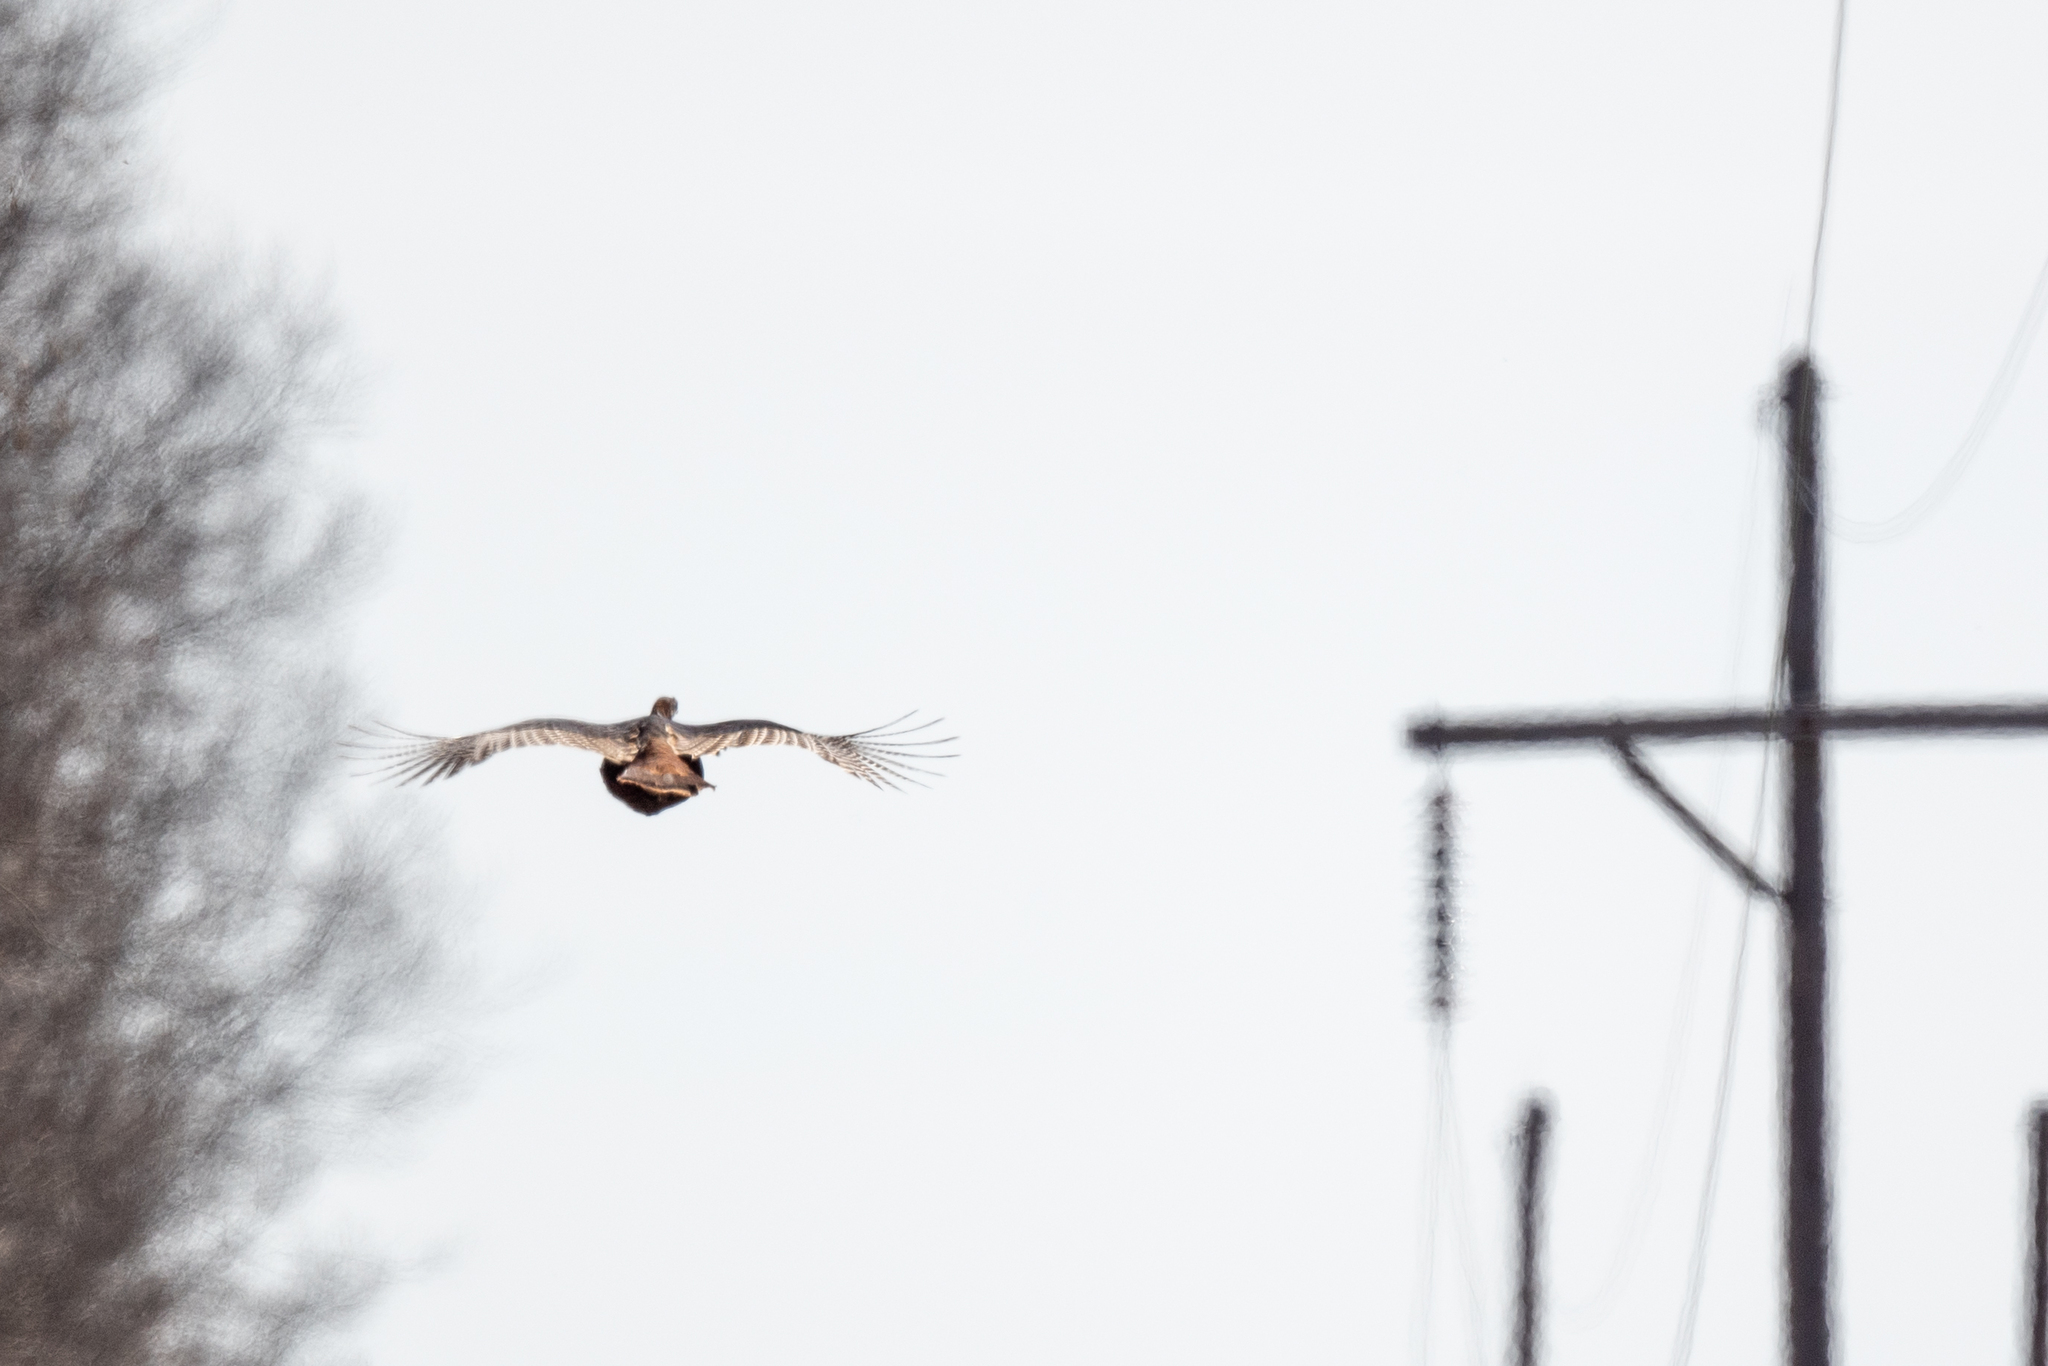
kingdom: Animalia
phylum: Chordata
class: Aves
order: Galliformes
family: Phasianidae
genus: Meleagris
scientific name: Meleagris gallopavo
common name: Wild turkey
